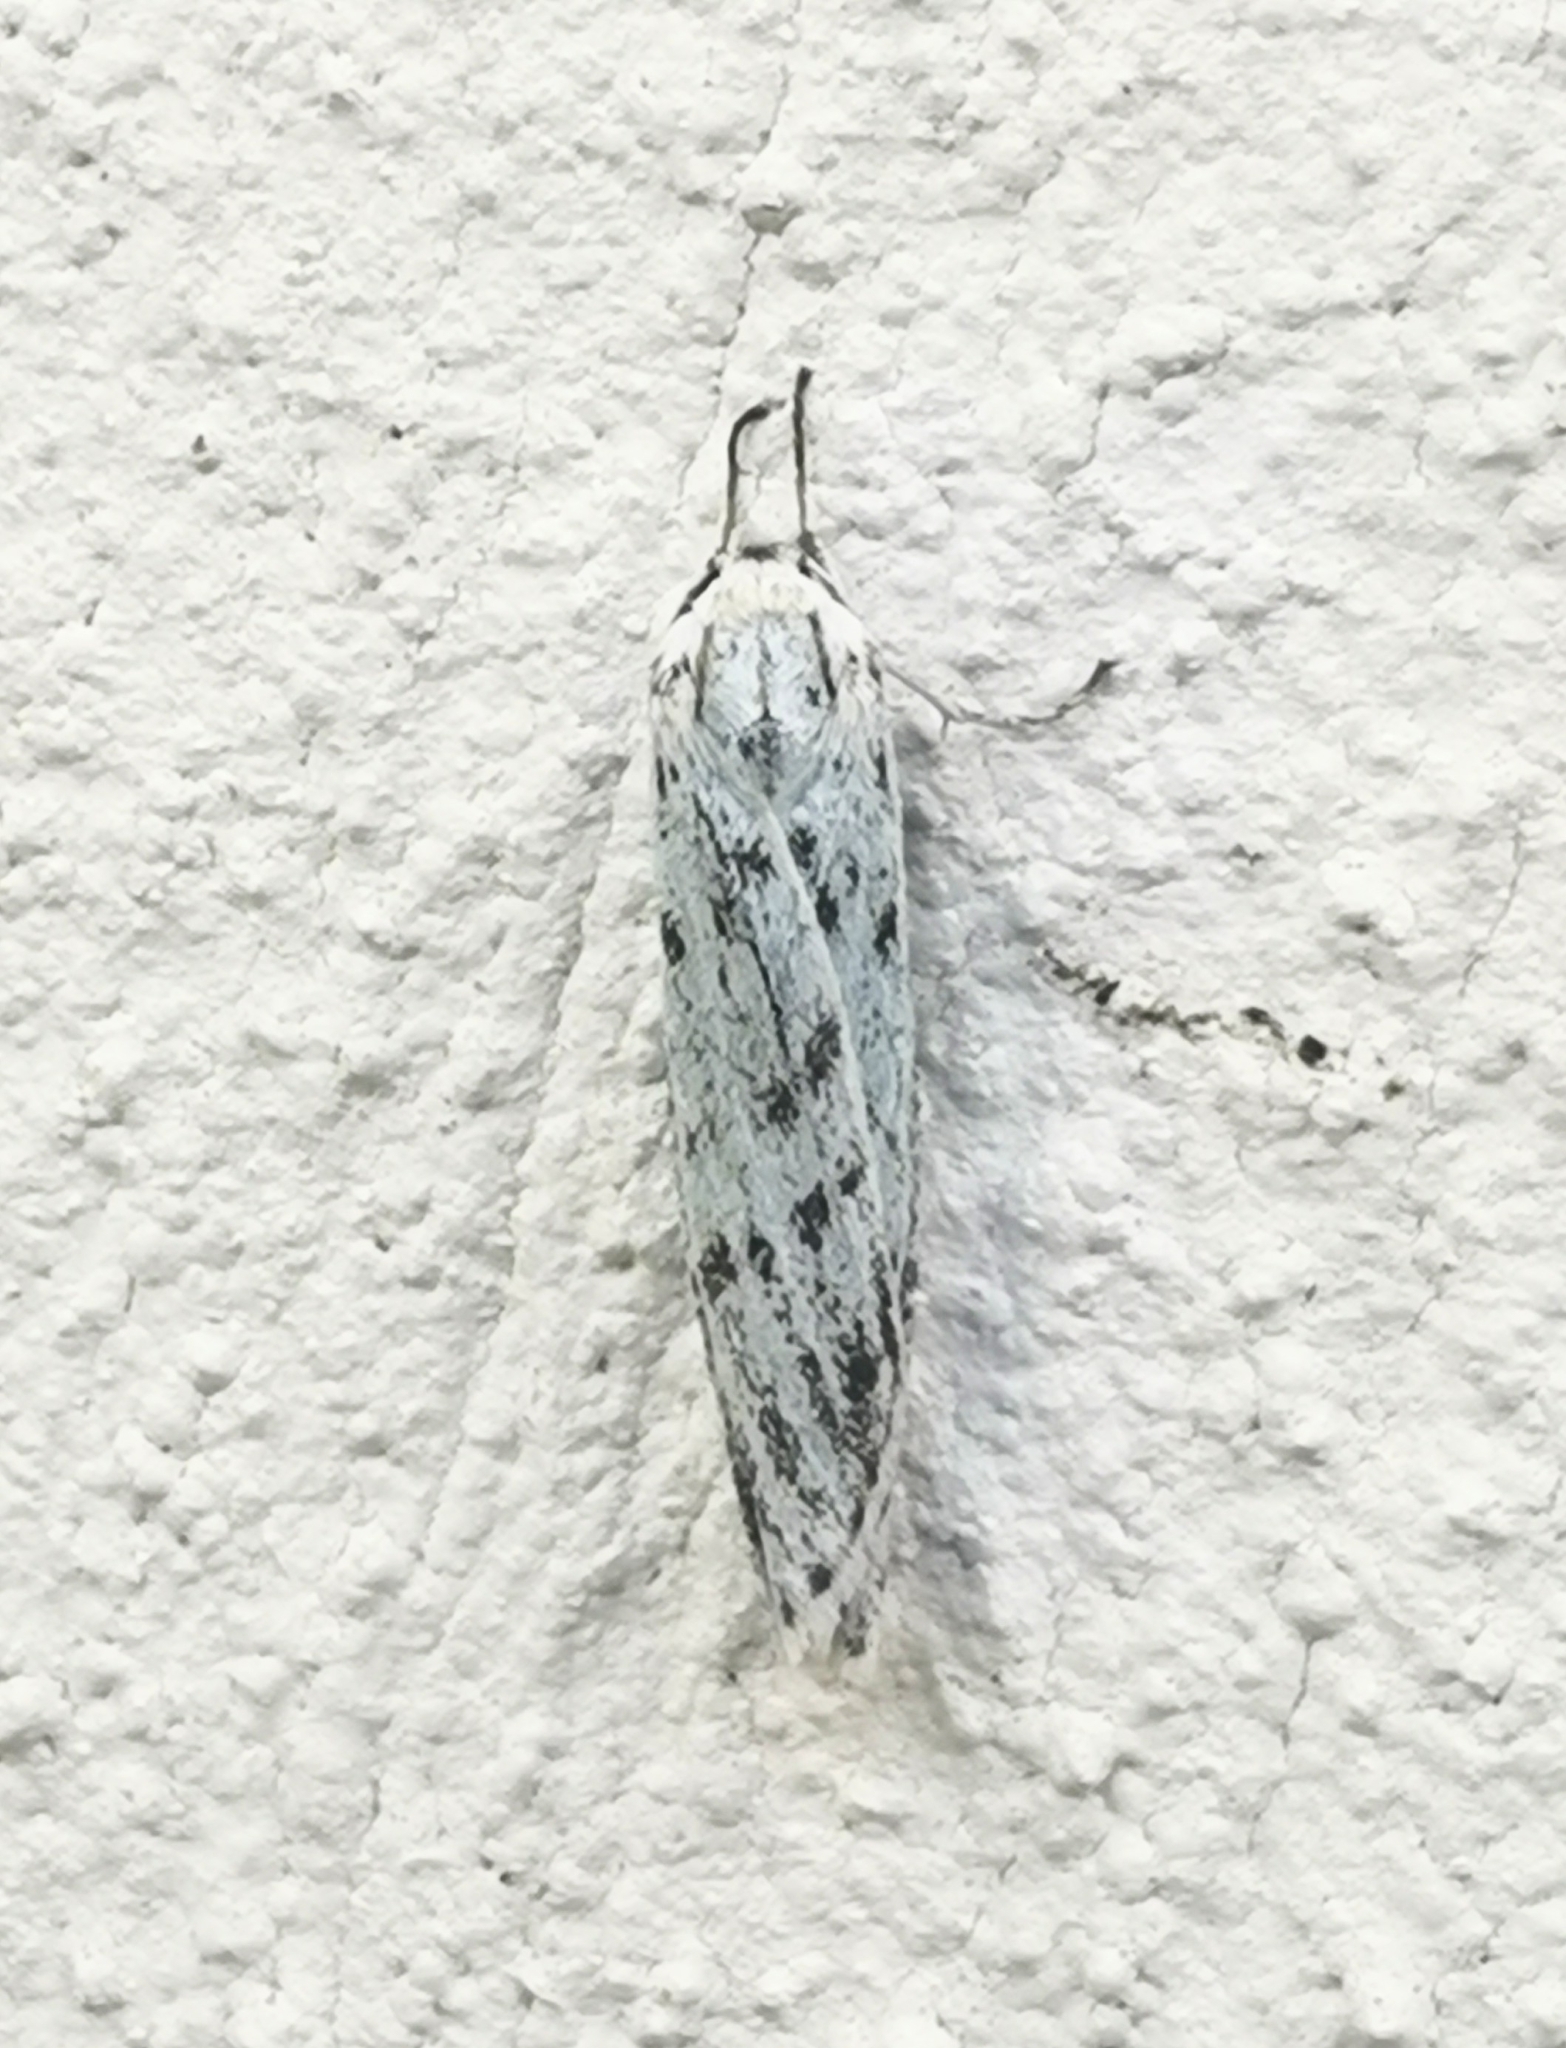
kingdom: Animalia
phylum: Arthropoda
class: Insecta
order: Lepidoptera
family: Erebidae
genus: Coscinia
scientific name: Coscinia cribraria
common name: Speckled footman
